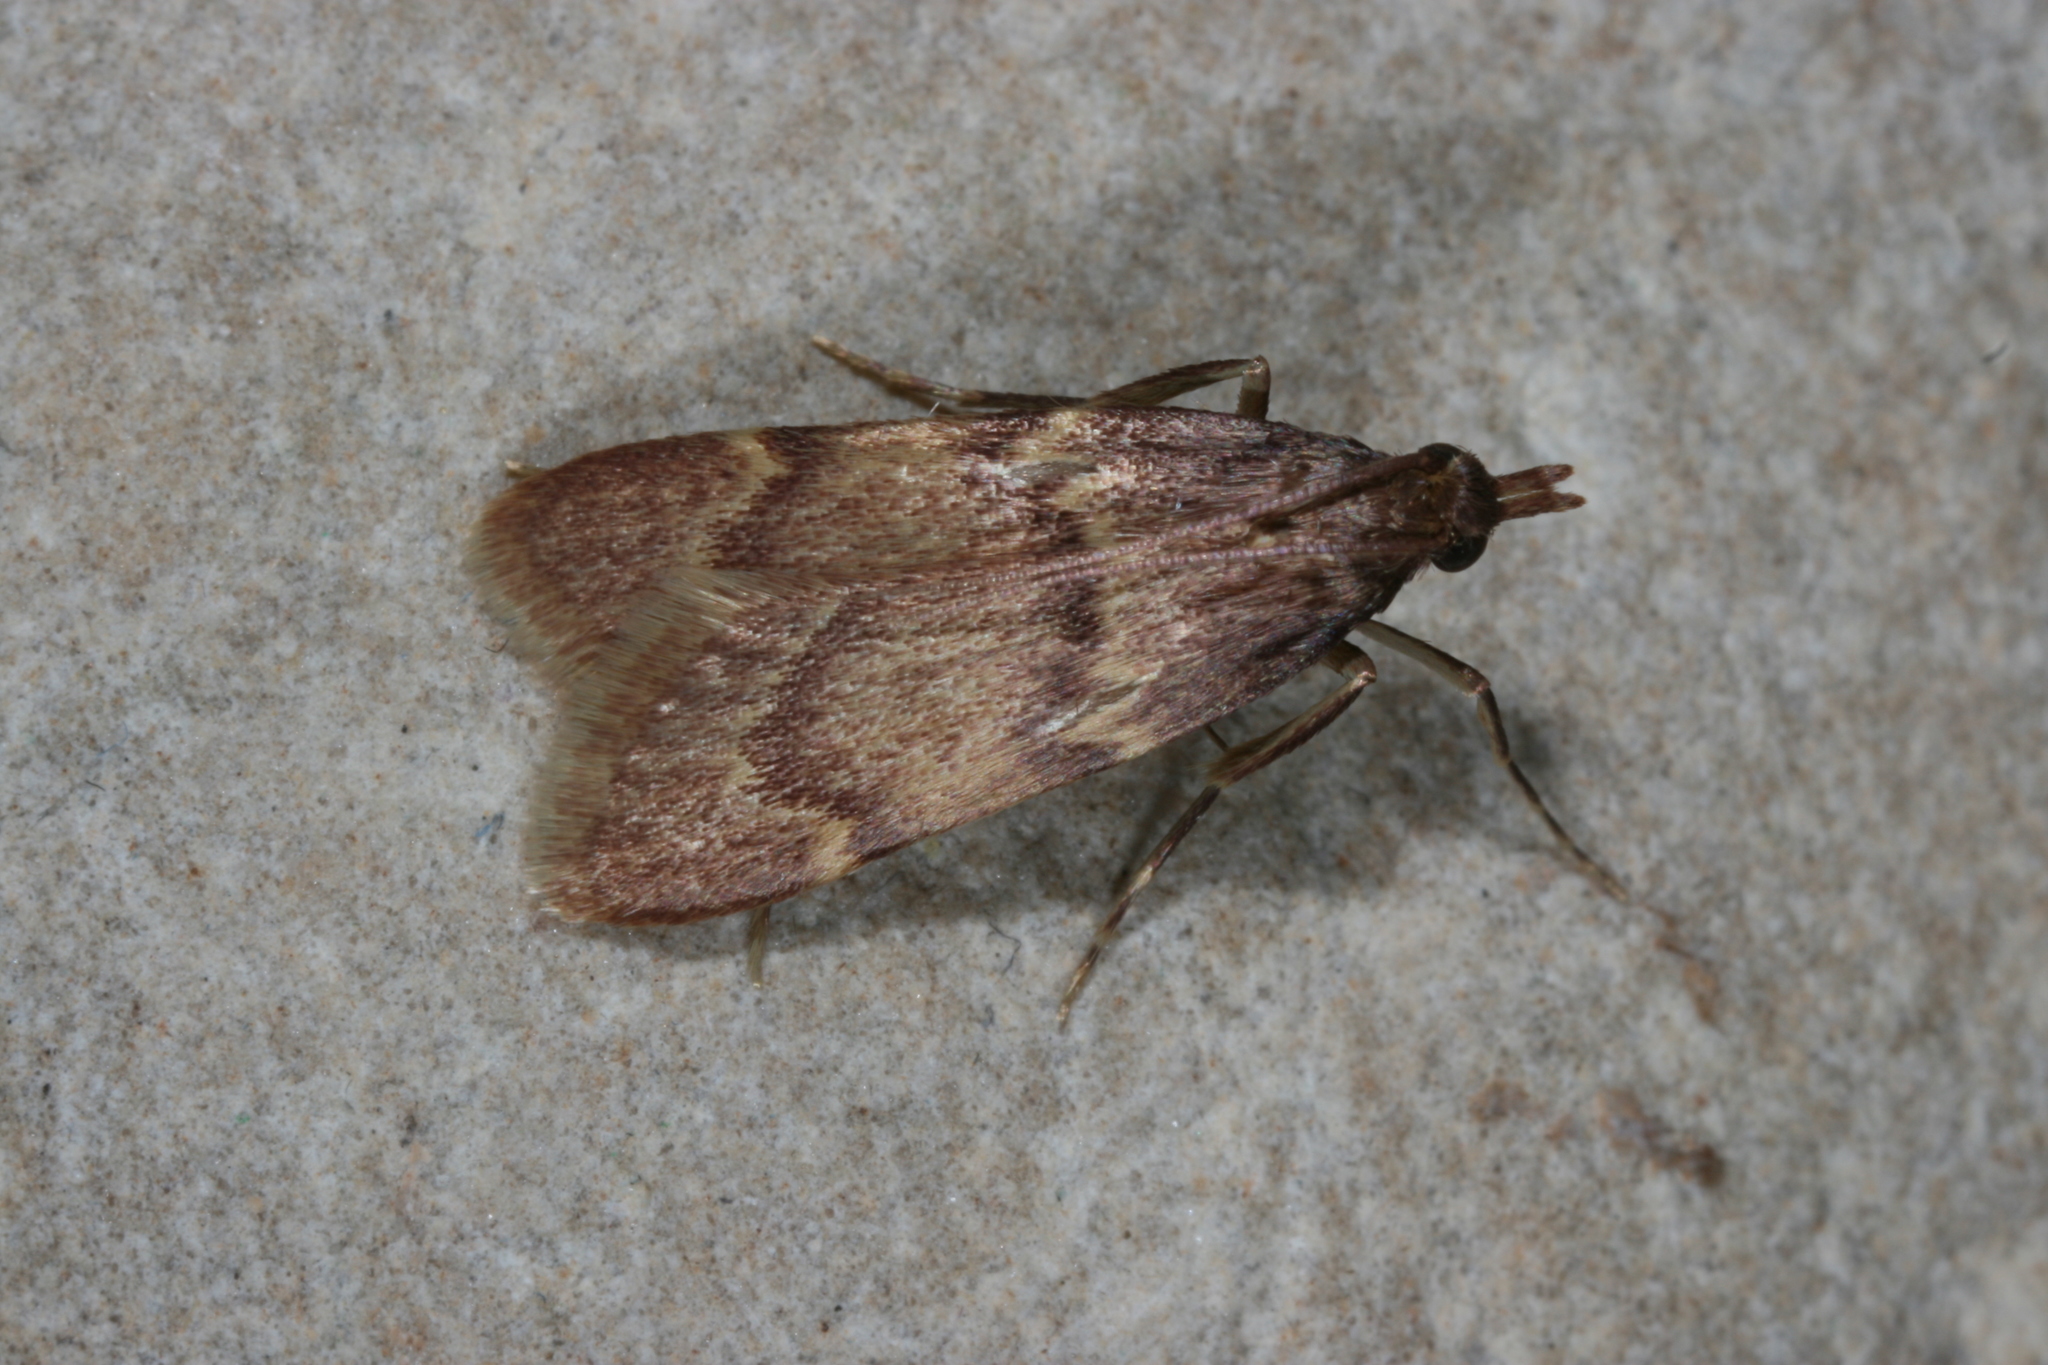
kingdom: Animalia
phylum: Arthropoda
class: Insecta
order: Lepidoptera
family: Pyralidae
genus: Acallis
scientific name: Acallis gripalis
